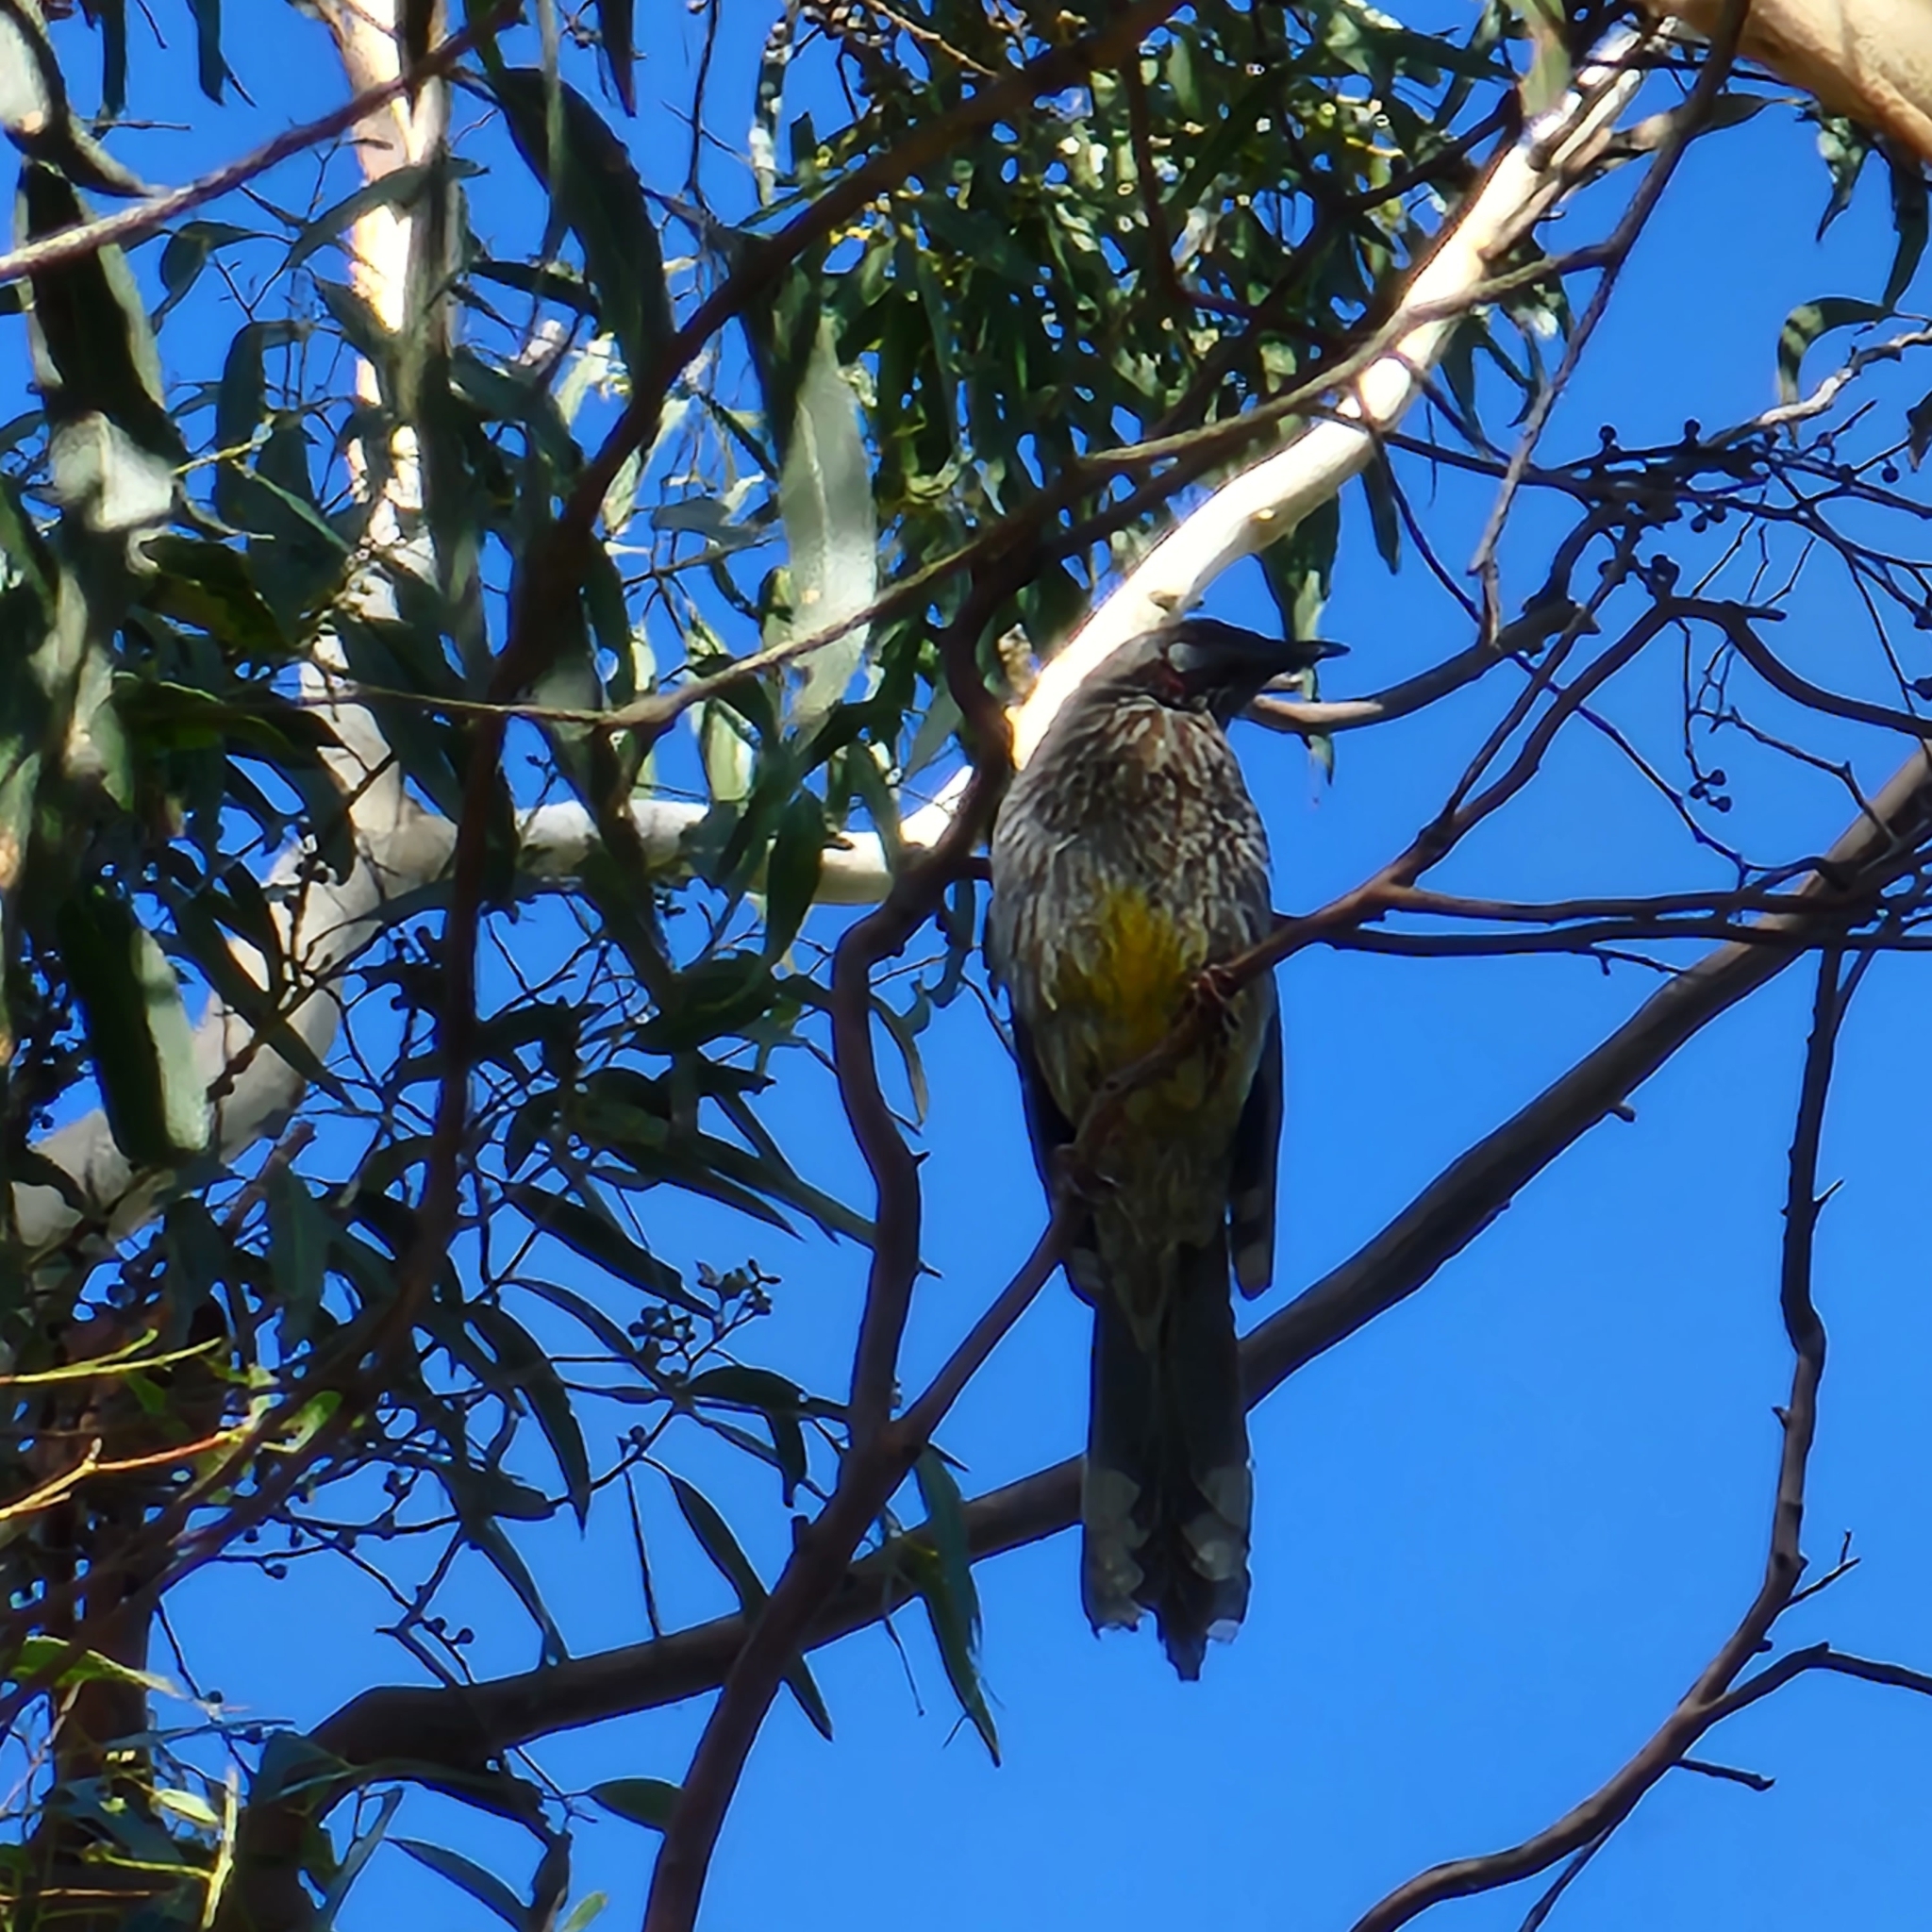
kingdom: Animalia
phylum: Chordata
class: Aves
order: Passeriformes
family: Meliphagidae
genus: Anthochaera
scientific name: Anthochaera carunculata
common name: Red wattlebird
